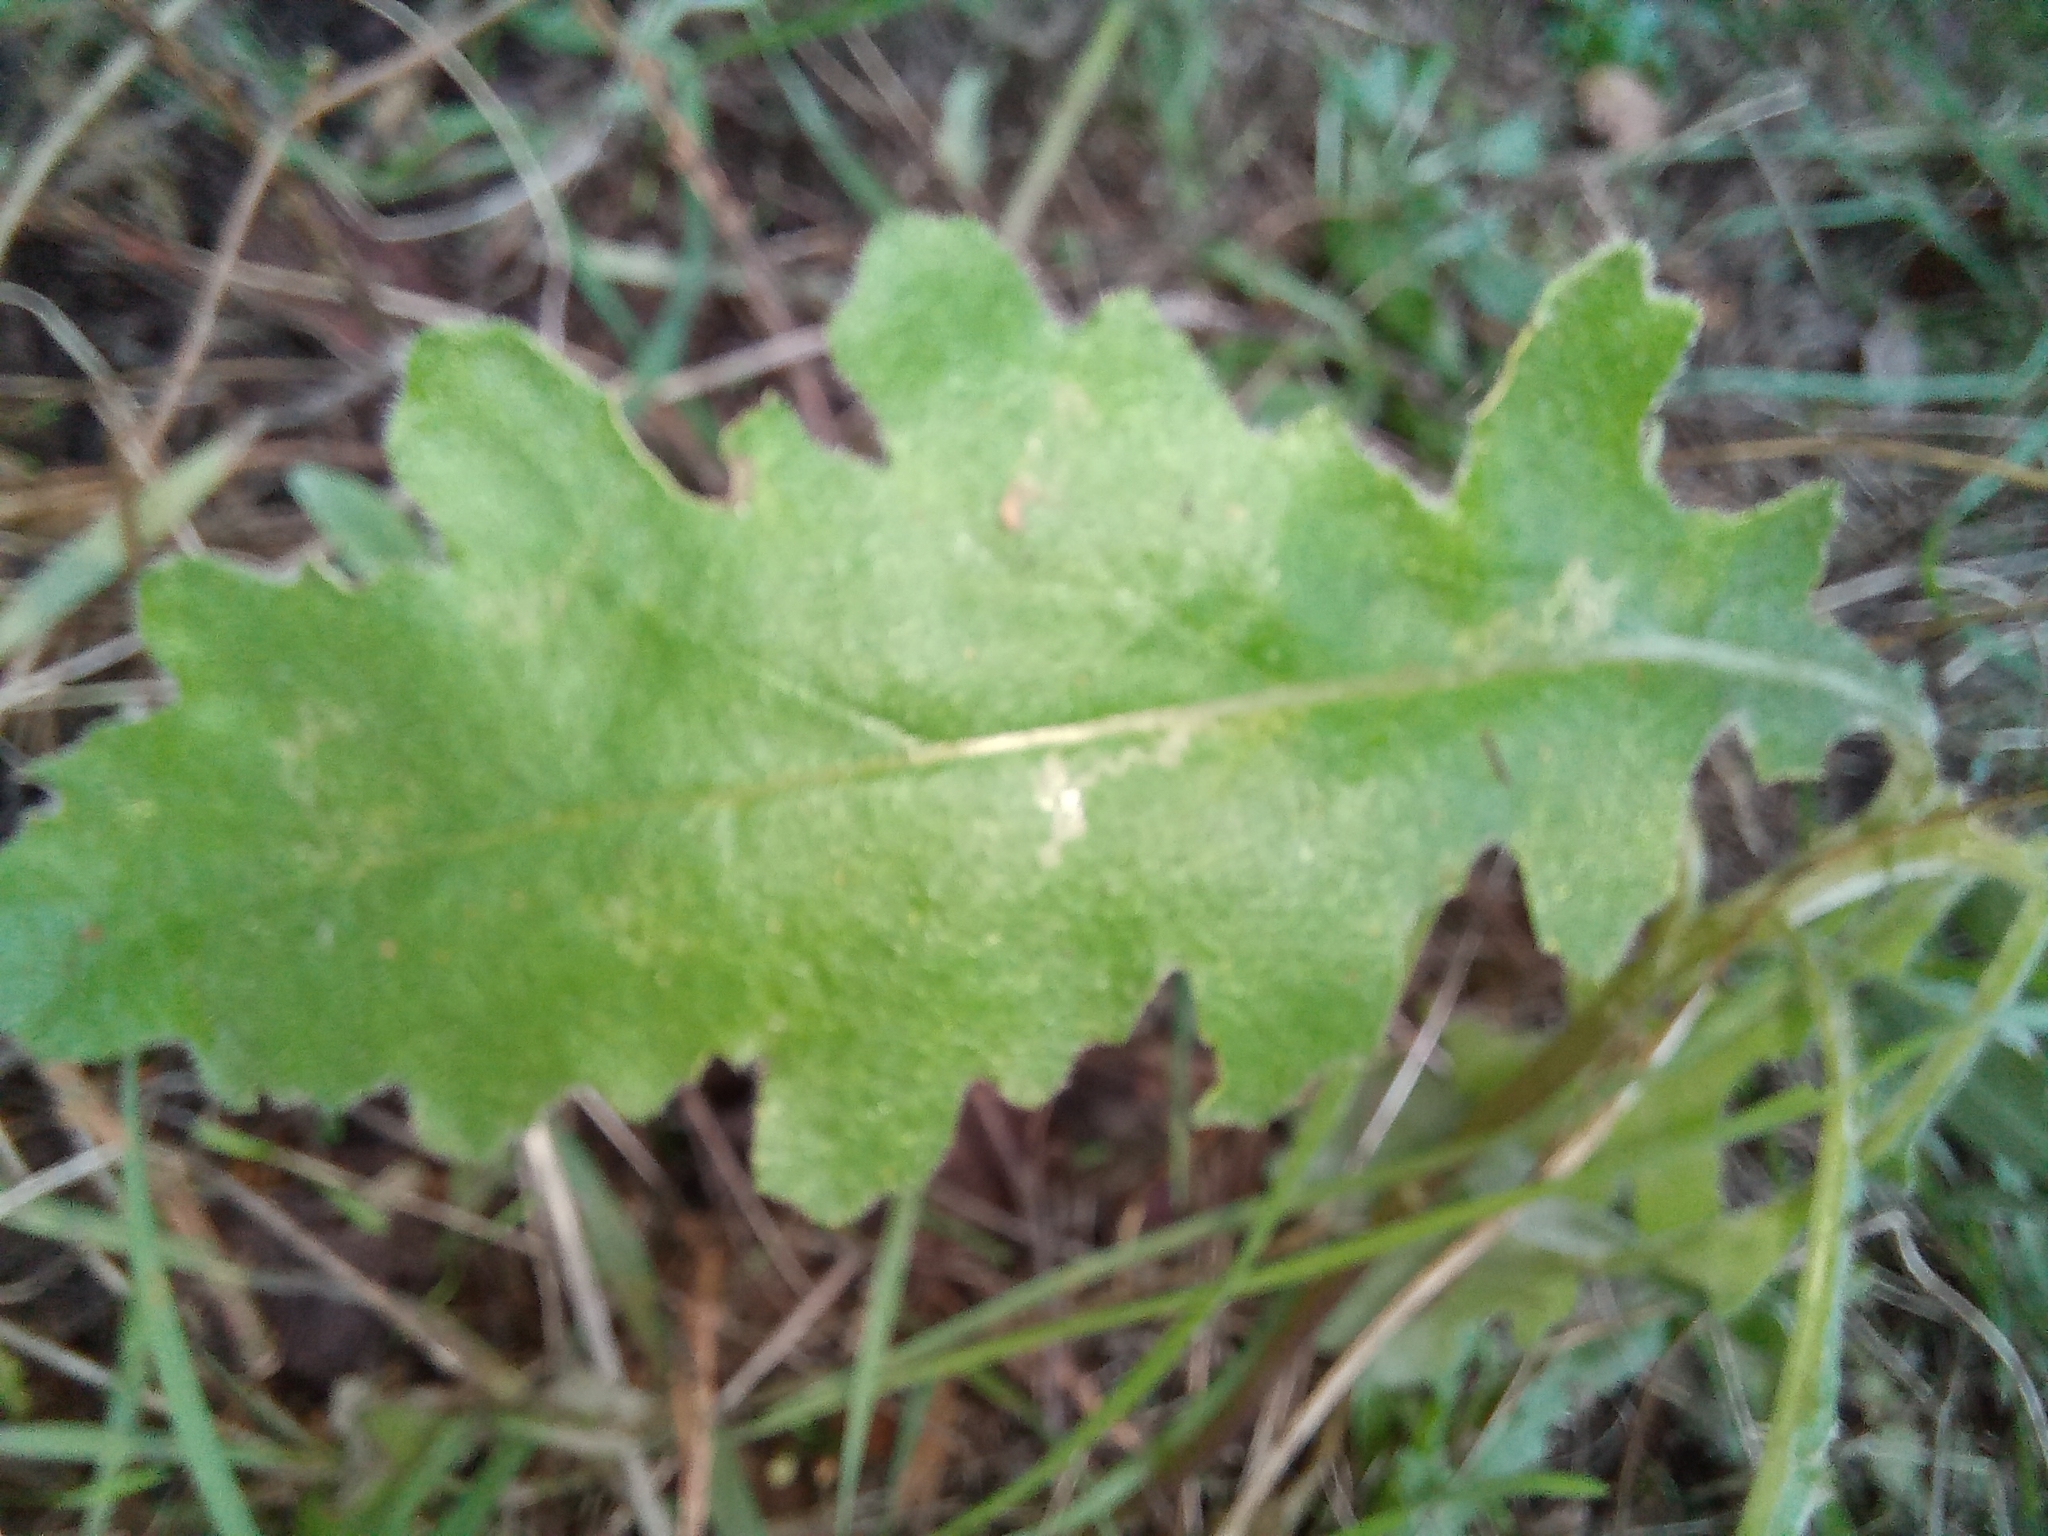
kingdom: Animalia
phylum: Arthropoda
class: Insecta
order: Lepidoptera
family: Nepticulidae
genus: Stigmella
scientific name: Stigmella ogygia
